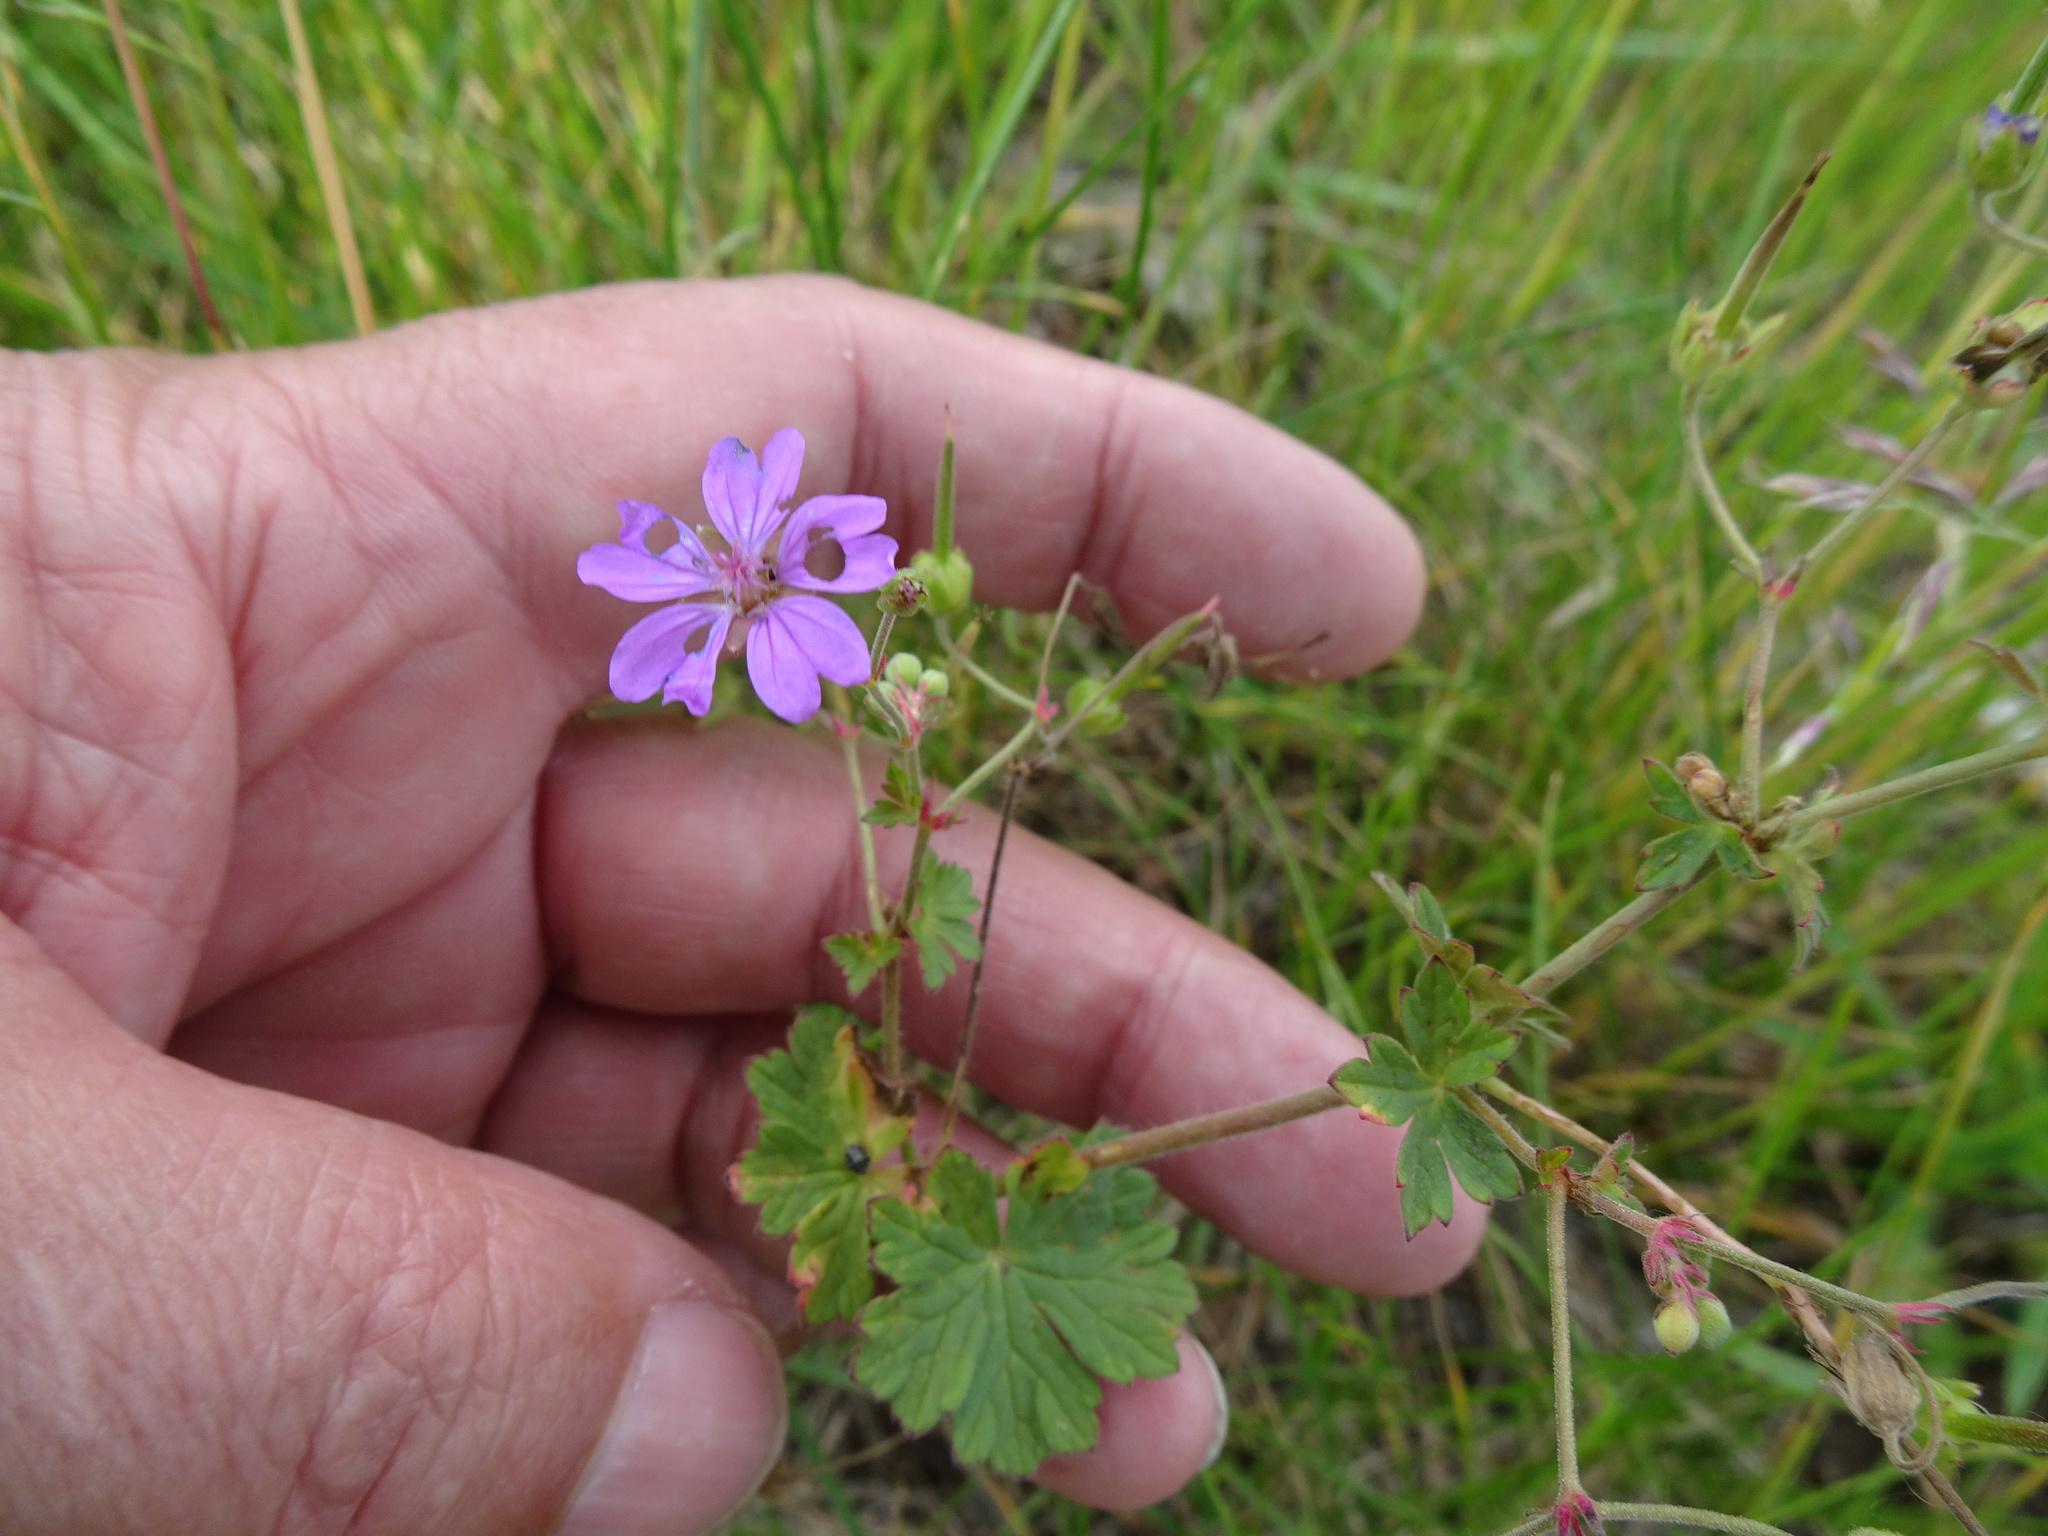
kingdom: Plantae
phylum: Tracheophyta
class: Magnoliopsida
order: Geraniales
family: Geraniaceae
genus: Geranium
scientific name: Geranium pyrenaicum
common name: Hedgerow crane's-bill
